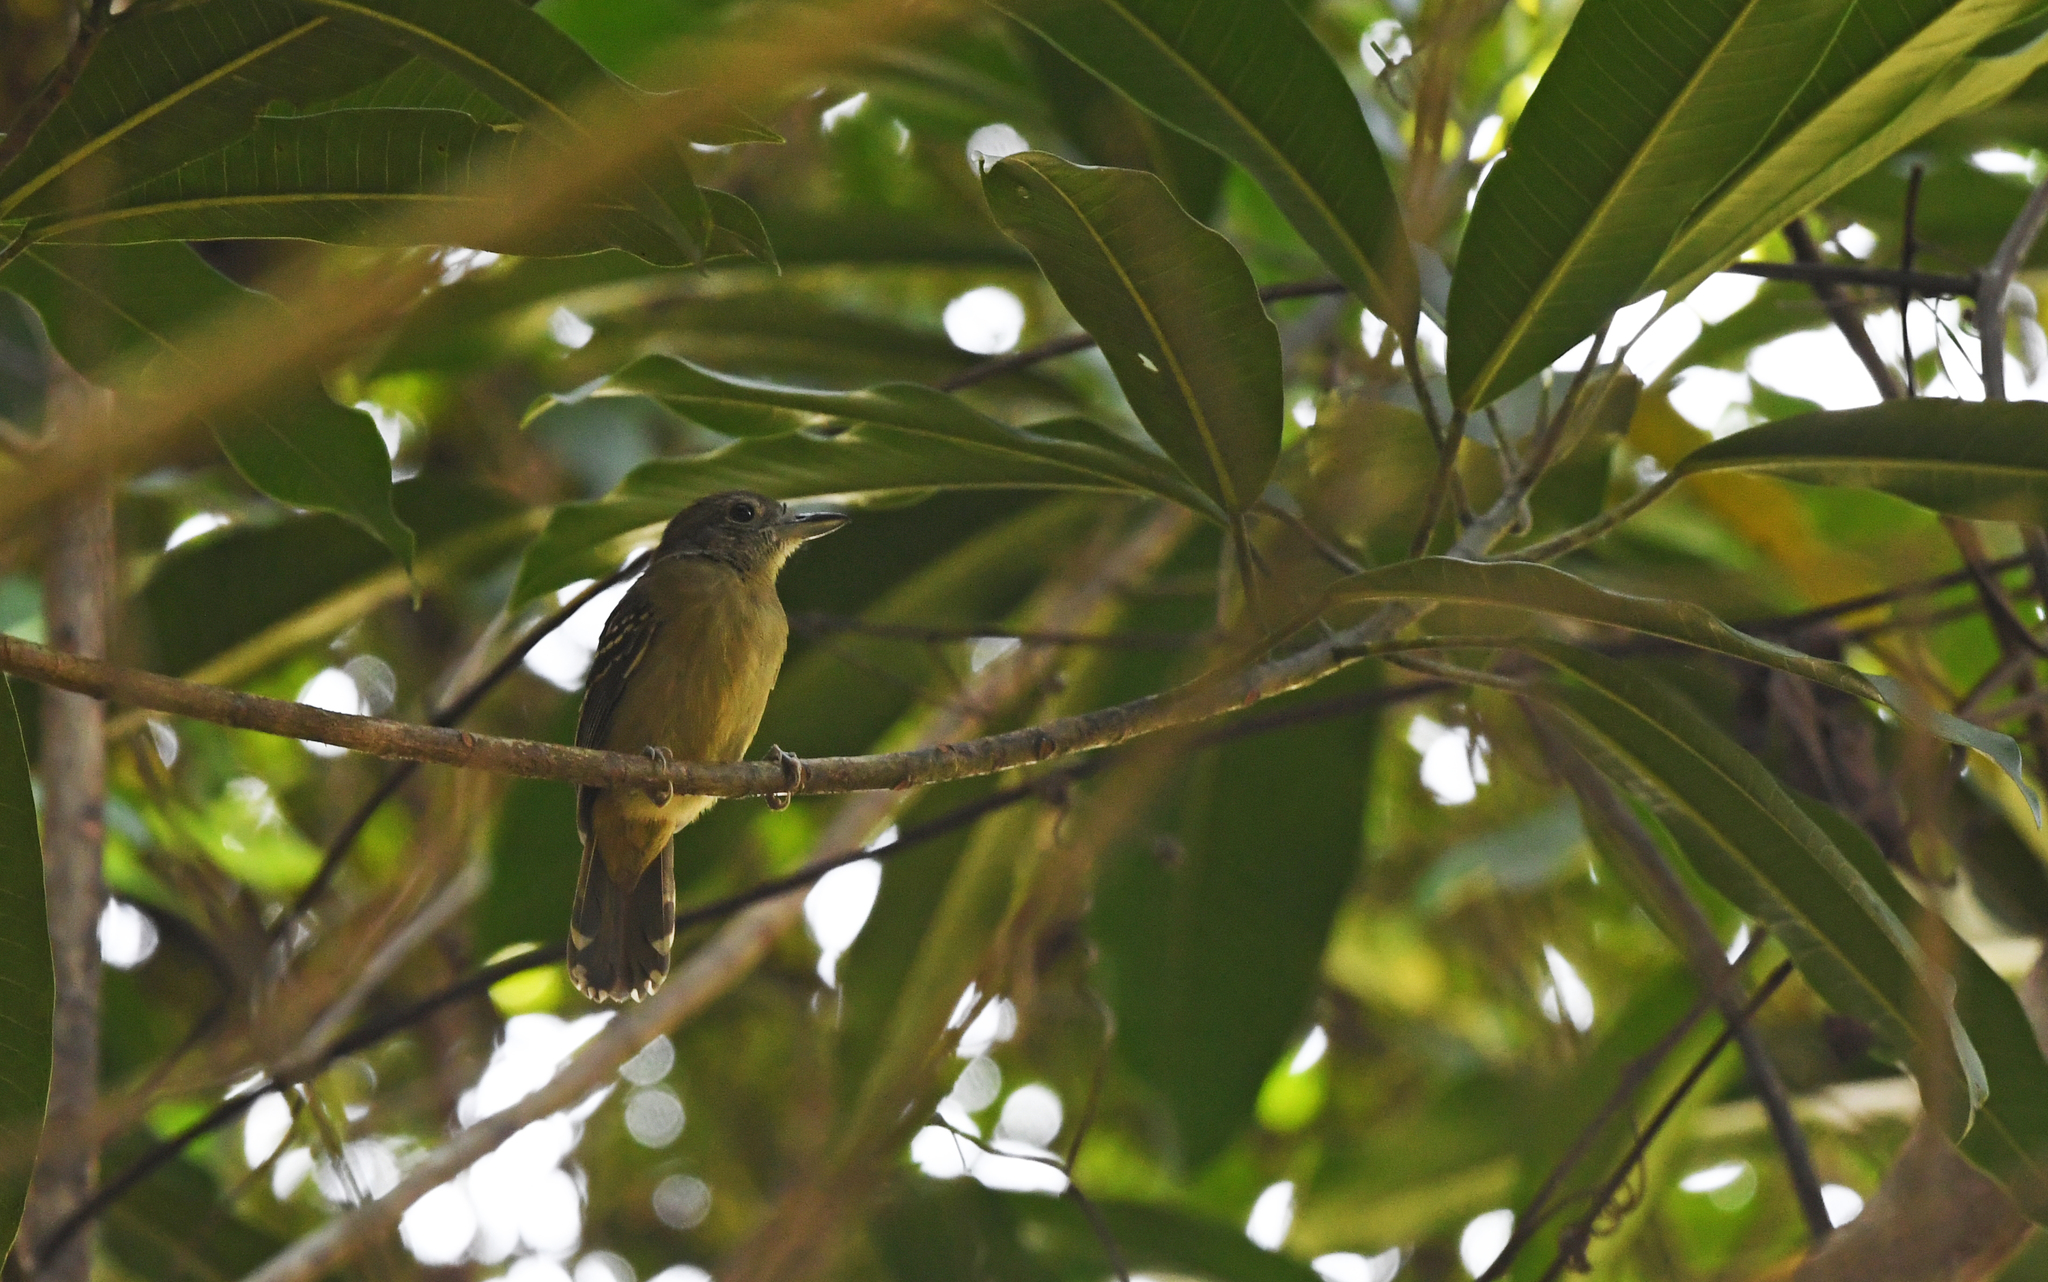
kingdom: Animalia
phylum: Chordata
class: Aves
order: Passeriformes
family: Thamnophilidae
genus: Thamnophilus
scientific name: Thamnophilus atrinucha
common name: Black-crowned antshrike
